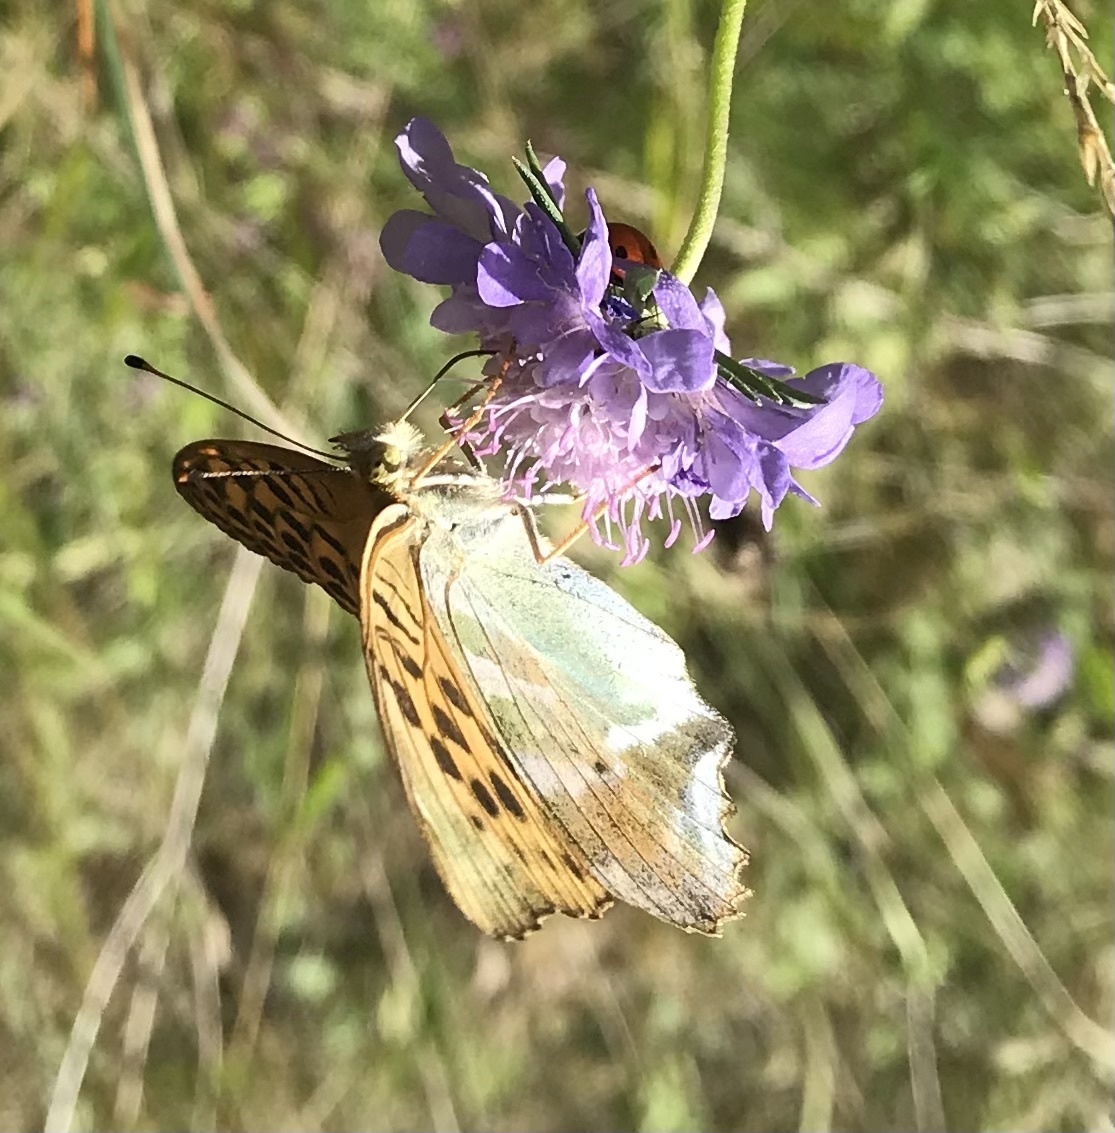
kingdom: Animalia
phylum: Arthropoda
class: Insecta
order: Lepidoptera
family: Nymphalidae
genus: Argynnis
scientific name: Argynnis paphia
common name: Silver-washed fritillary
